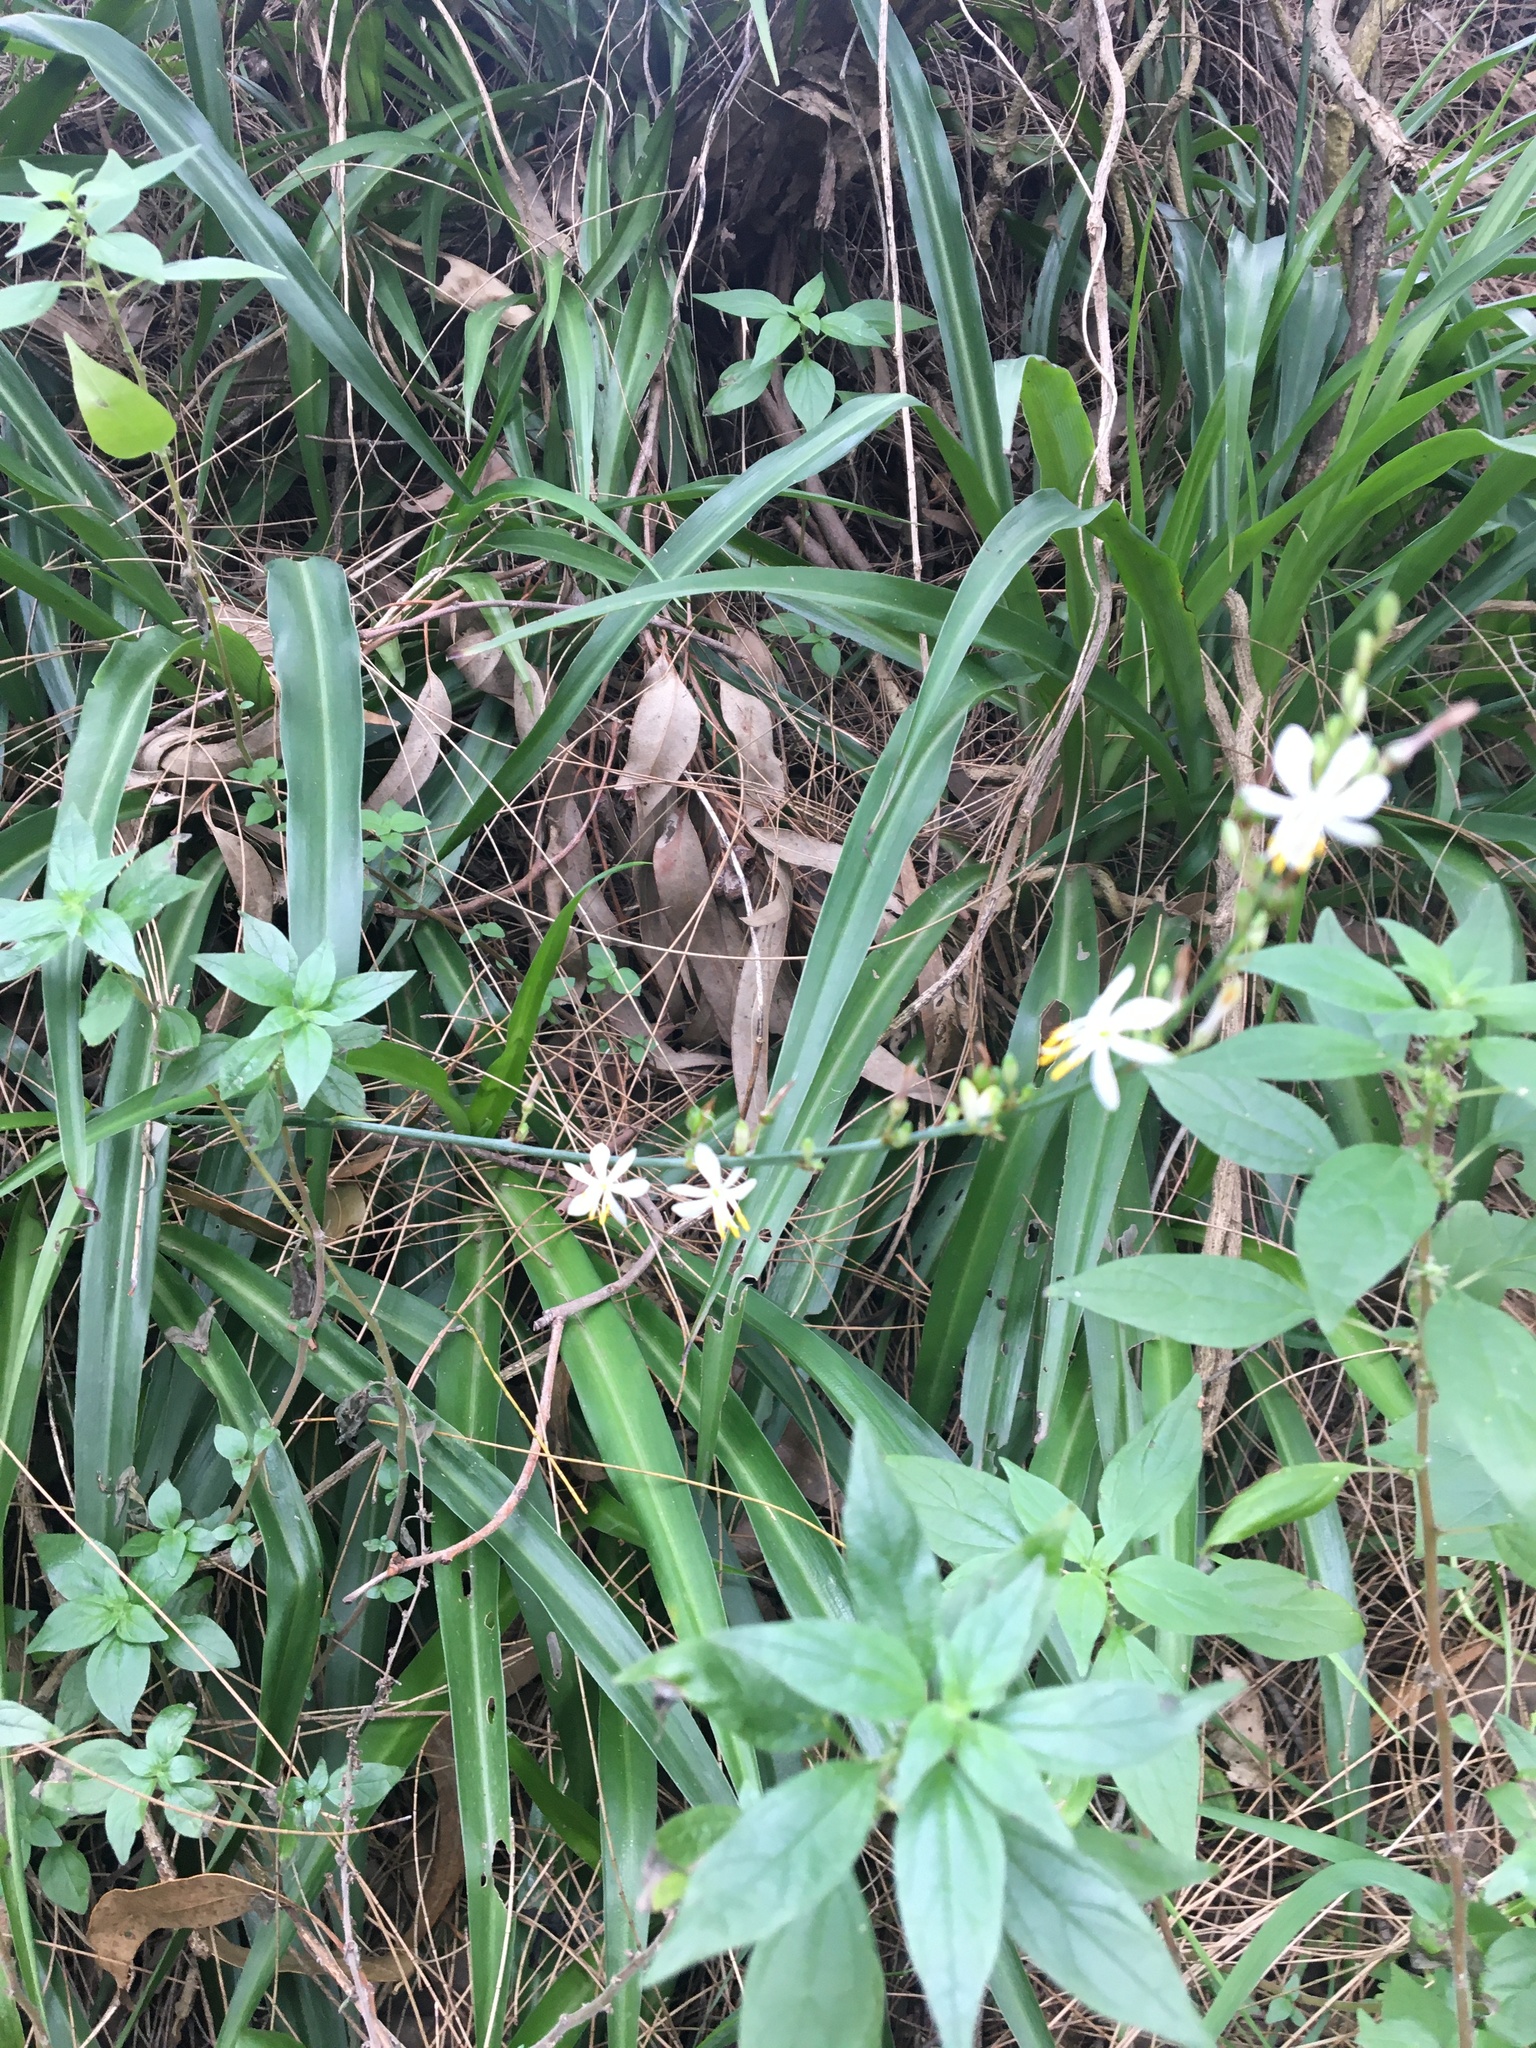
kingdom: Plantae
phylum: Tracheophyta
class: Liliopsida
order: Asparagales
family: Asparagaceae
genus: Chlorophytum
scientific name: Chlorophytum comosum
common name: Spider plant
